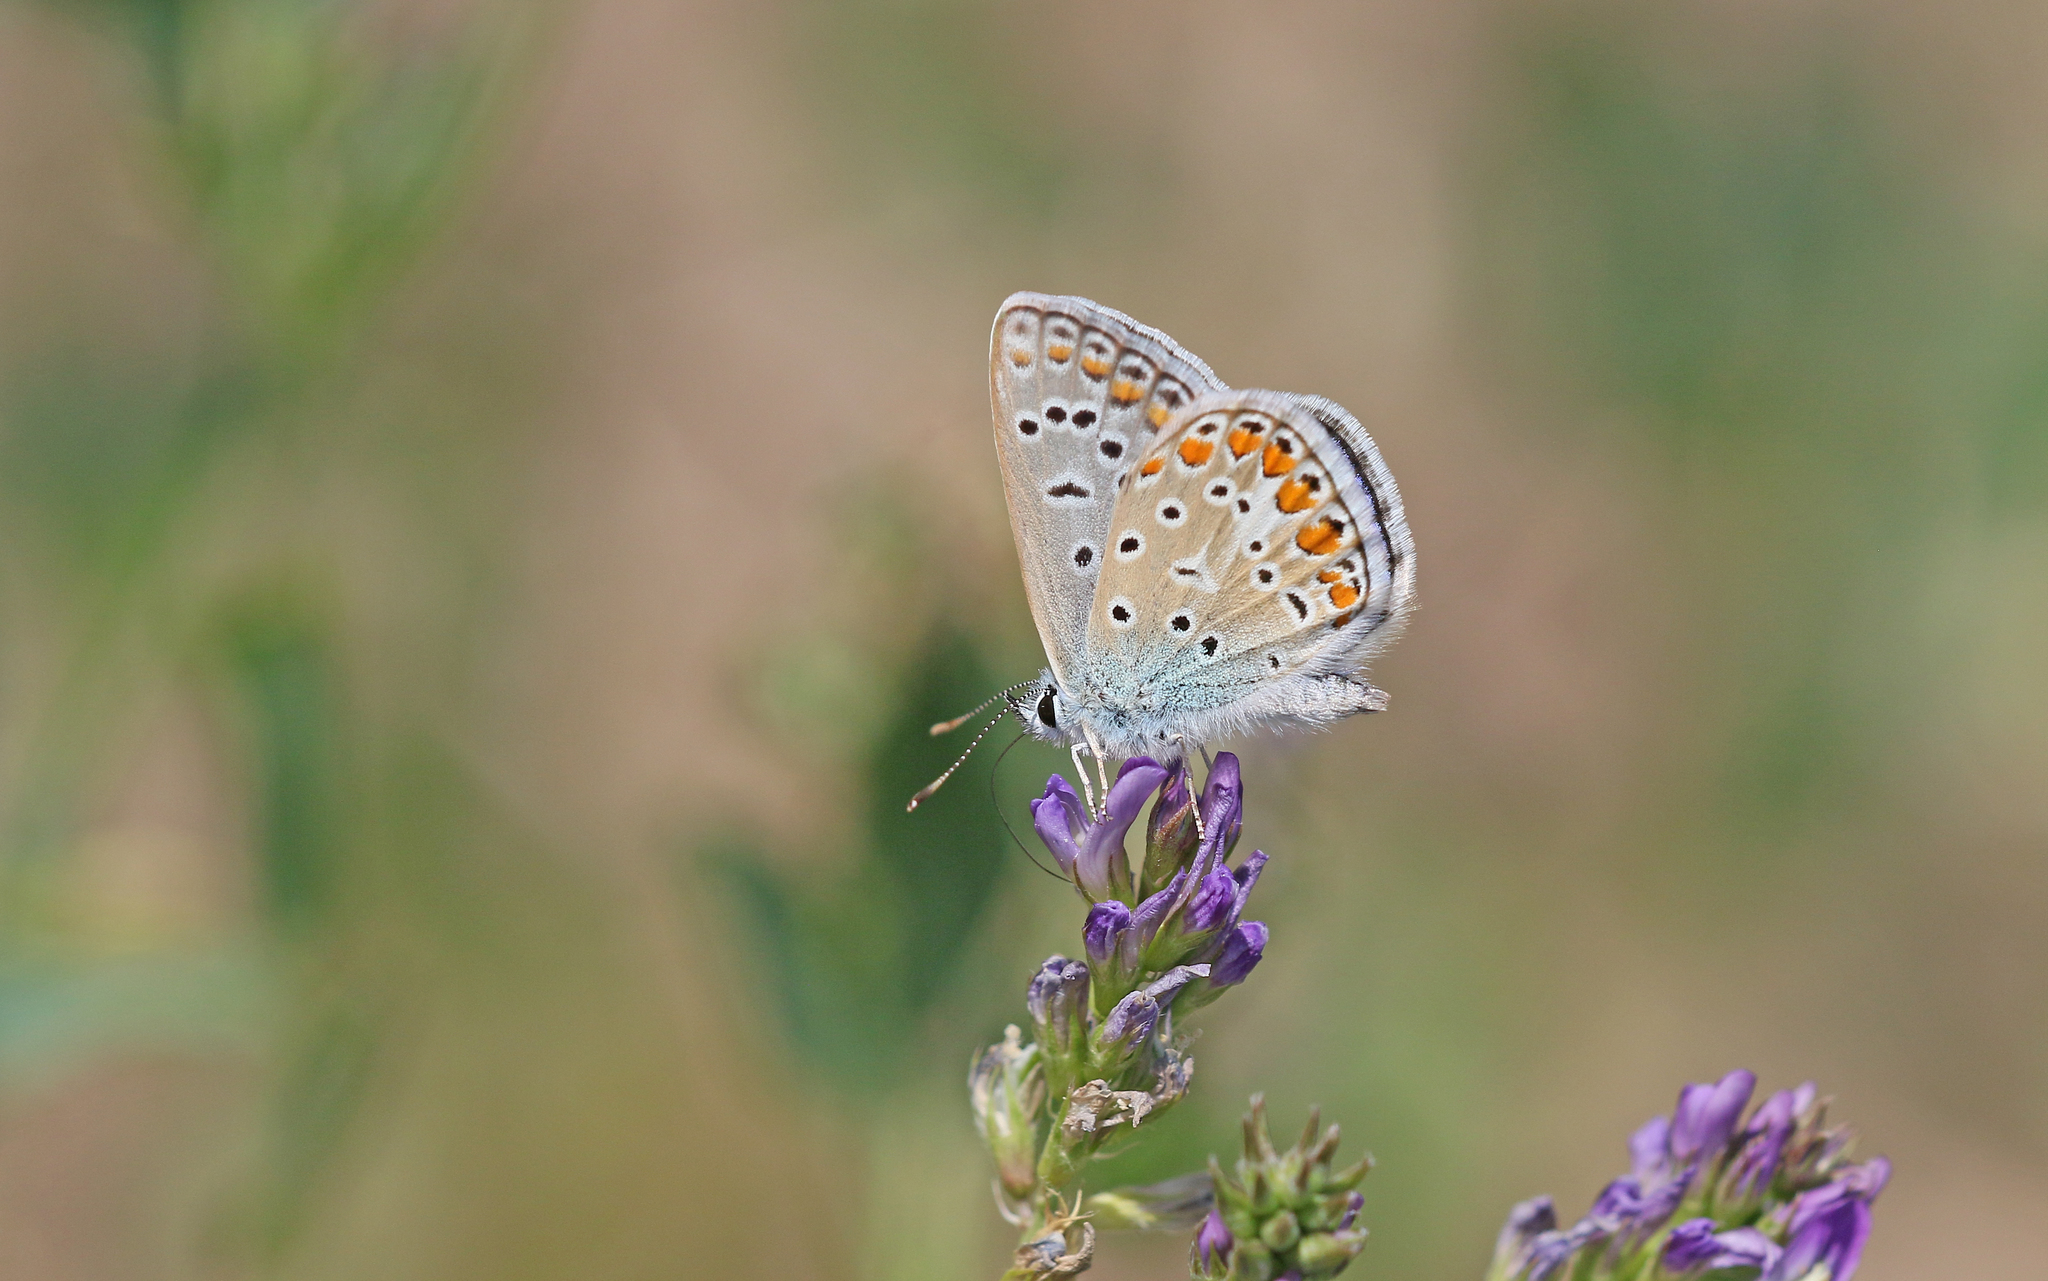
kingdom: Animalia
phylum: Arthropoda
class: Insecta
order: Lepidoptera
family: Lycaenidae
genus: Polyommatus
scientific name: Polyommatus icarus
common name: Common blue
